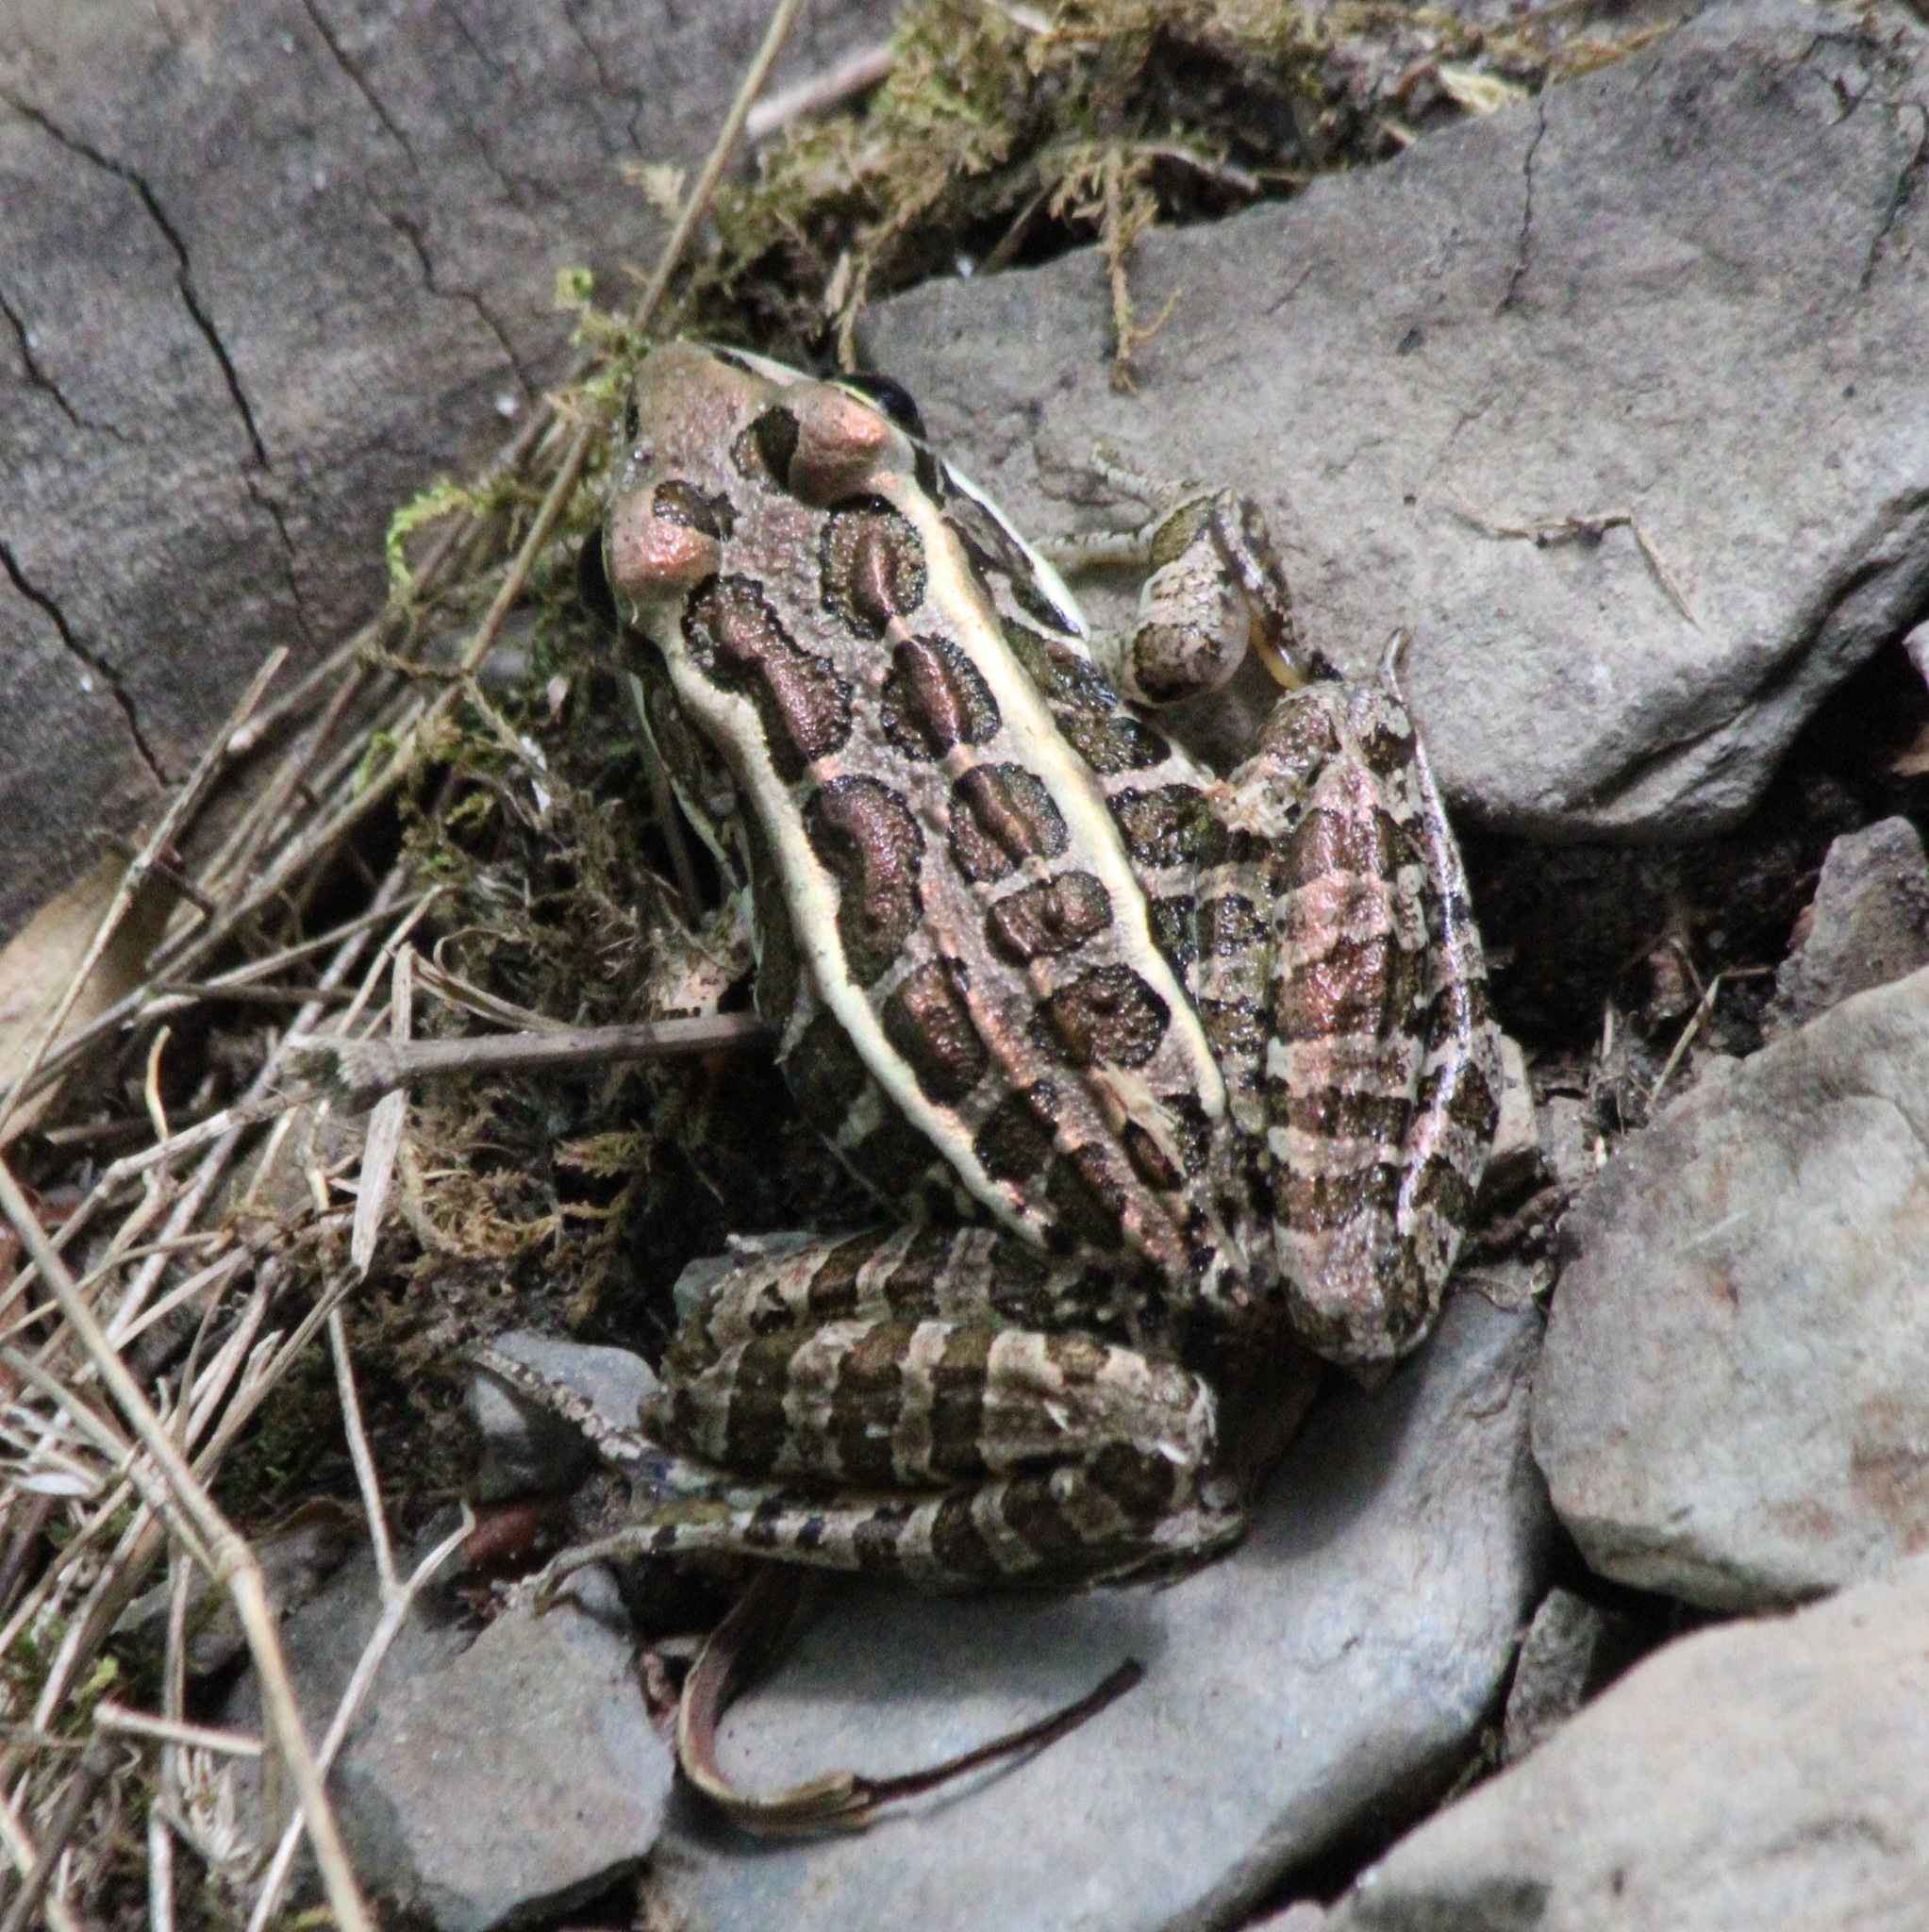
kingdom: Animalia
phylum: Chordata
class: Amphibia
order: Anura
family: Ranidae
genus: Lithobates
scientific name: Lithobates palustris
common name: Pickerel frog
